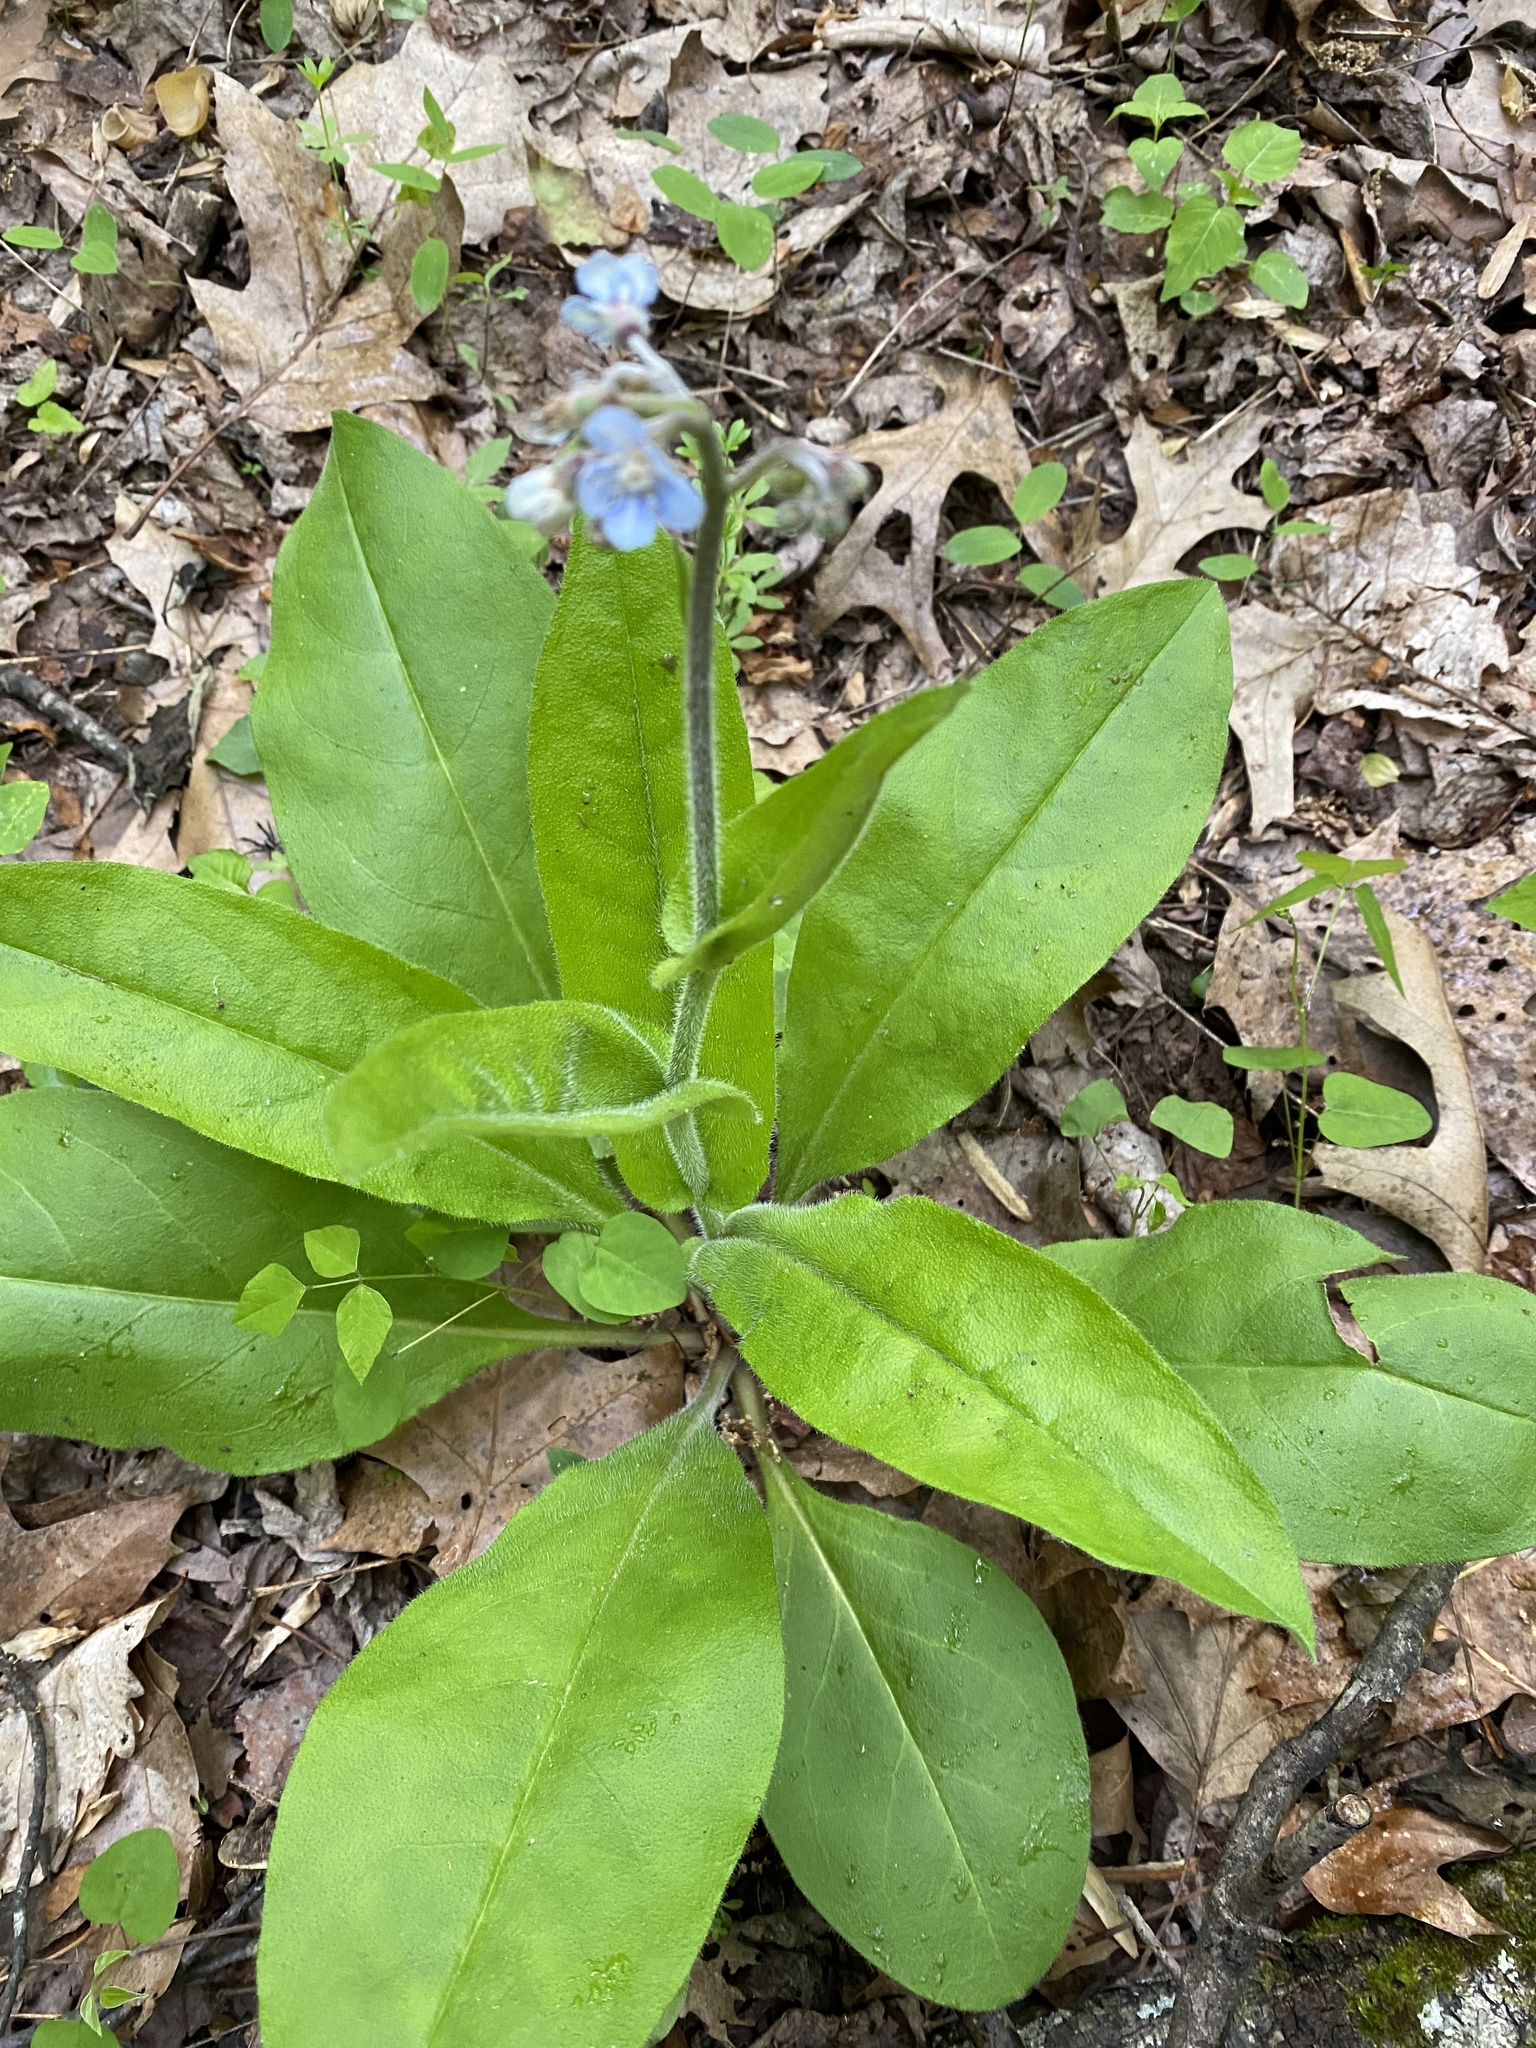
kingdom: Plantae
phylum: Tracheophyta
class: Magnoliopsida
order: Boraginales
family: Boraginaceae
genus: Andersonglossum
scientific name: Andersonglossum virginianum
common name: Wild comfrey
